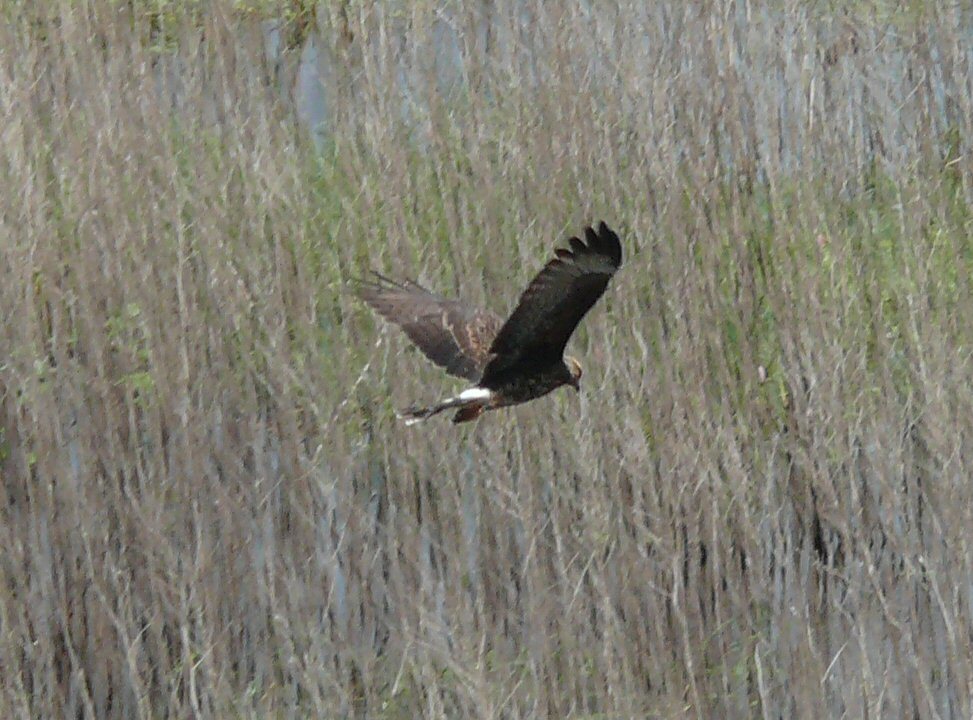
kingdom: Animalia
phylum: Chordata
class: Aves
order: Accipitriformes
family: Accipitridae
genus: Rostrhamus
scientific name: Rostrhamus sociabilis
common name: Snail kite
